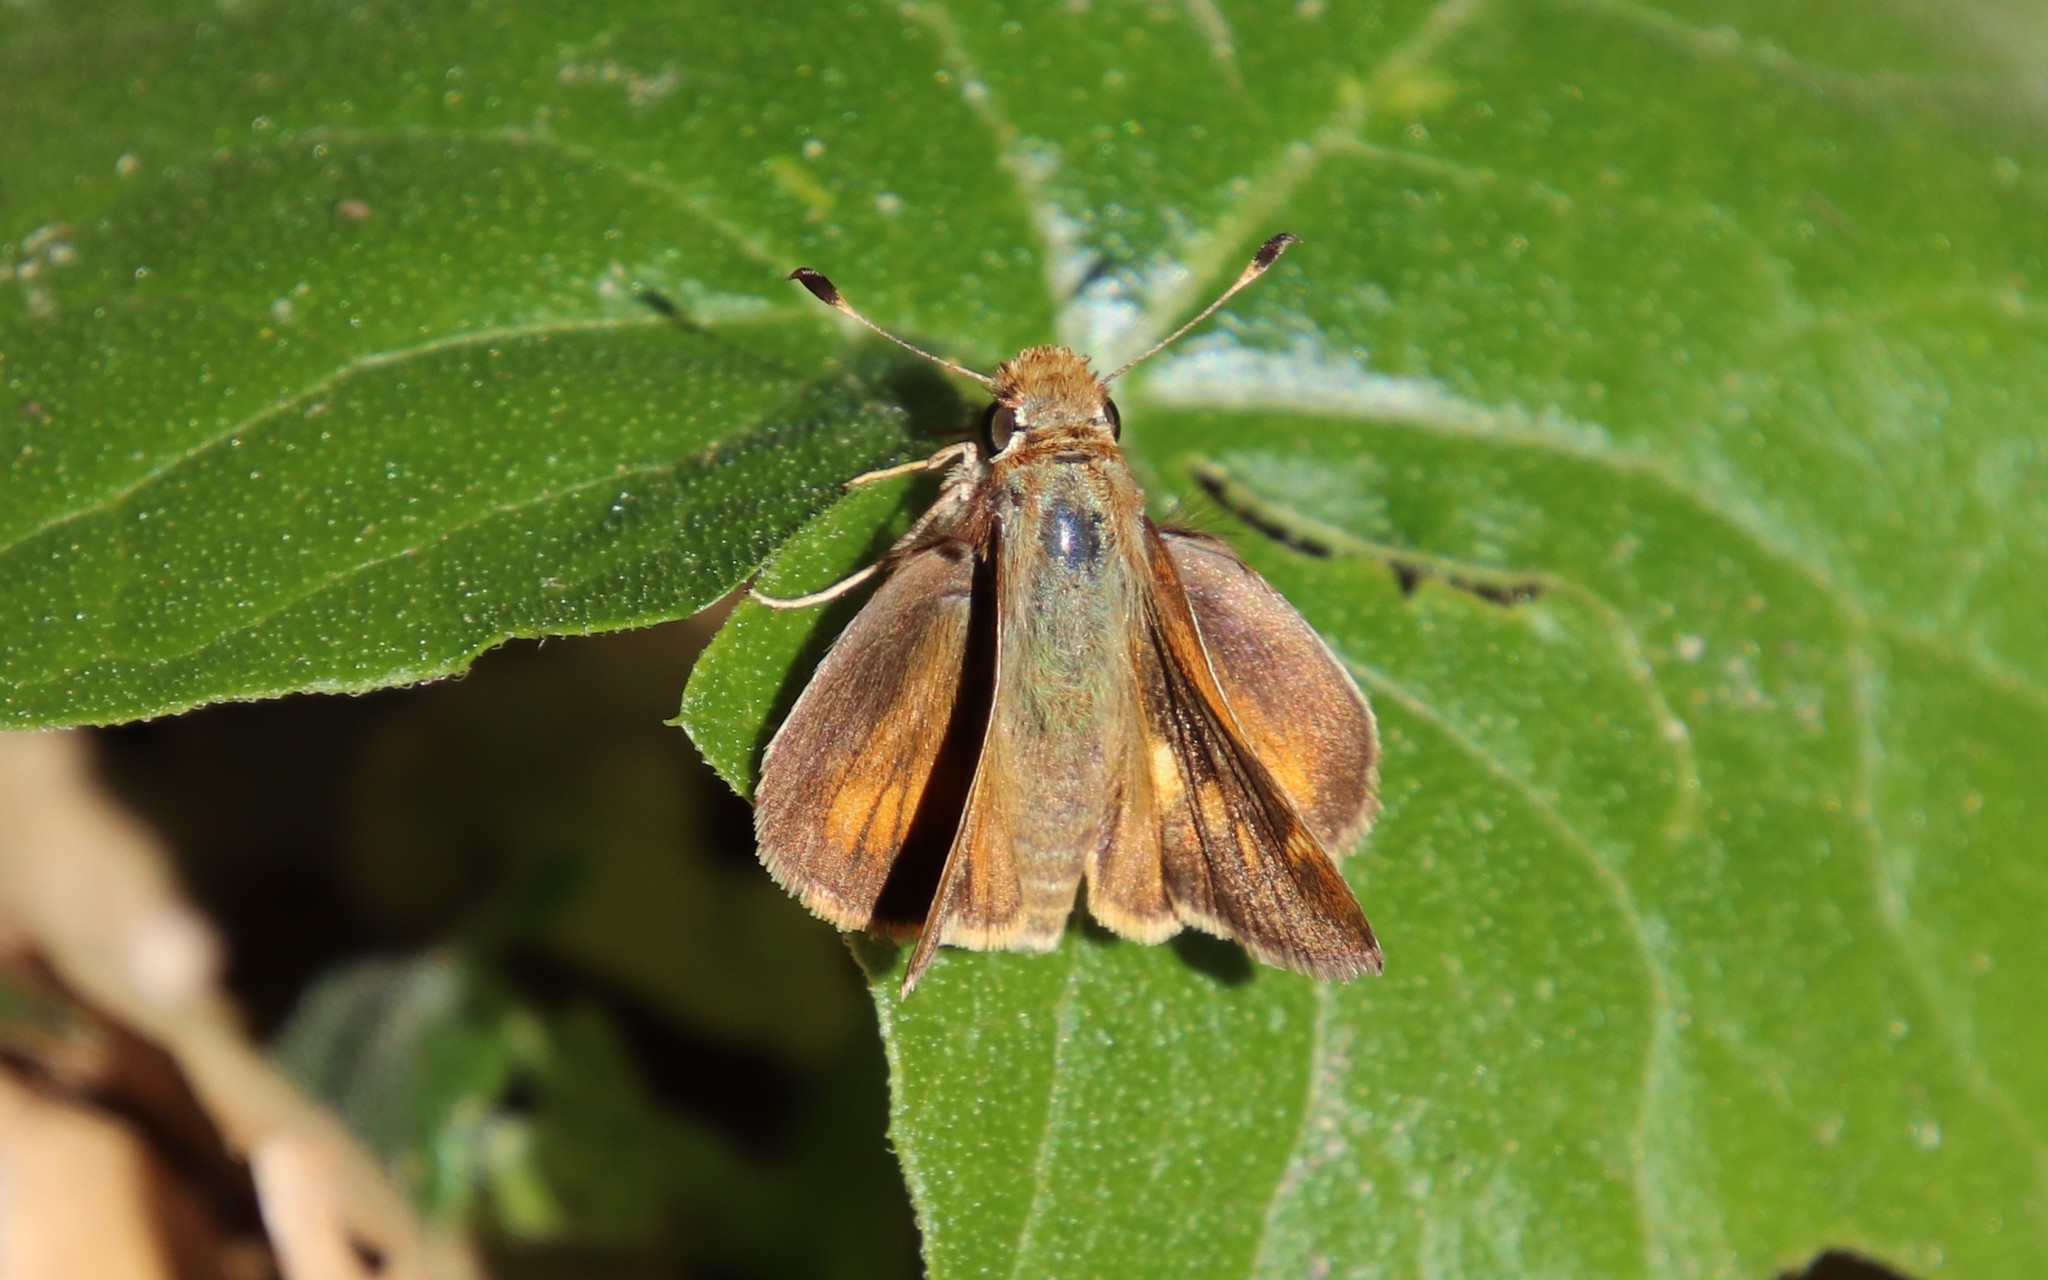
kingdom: Animalia
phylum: Arthropoda
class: Insecta
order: Lepidoptera
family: Hesperiidae
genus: Lon
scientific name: Lon melane
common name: Umber skipper
